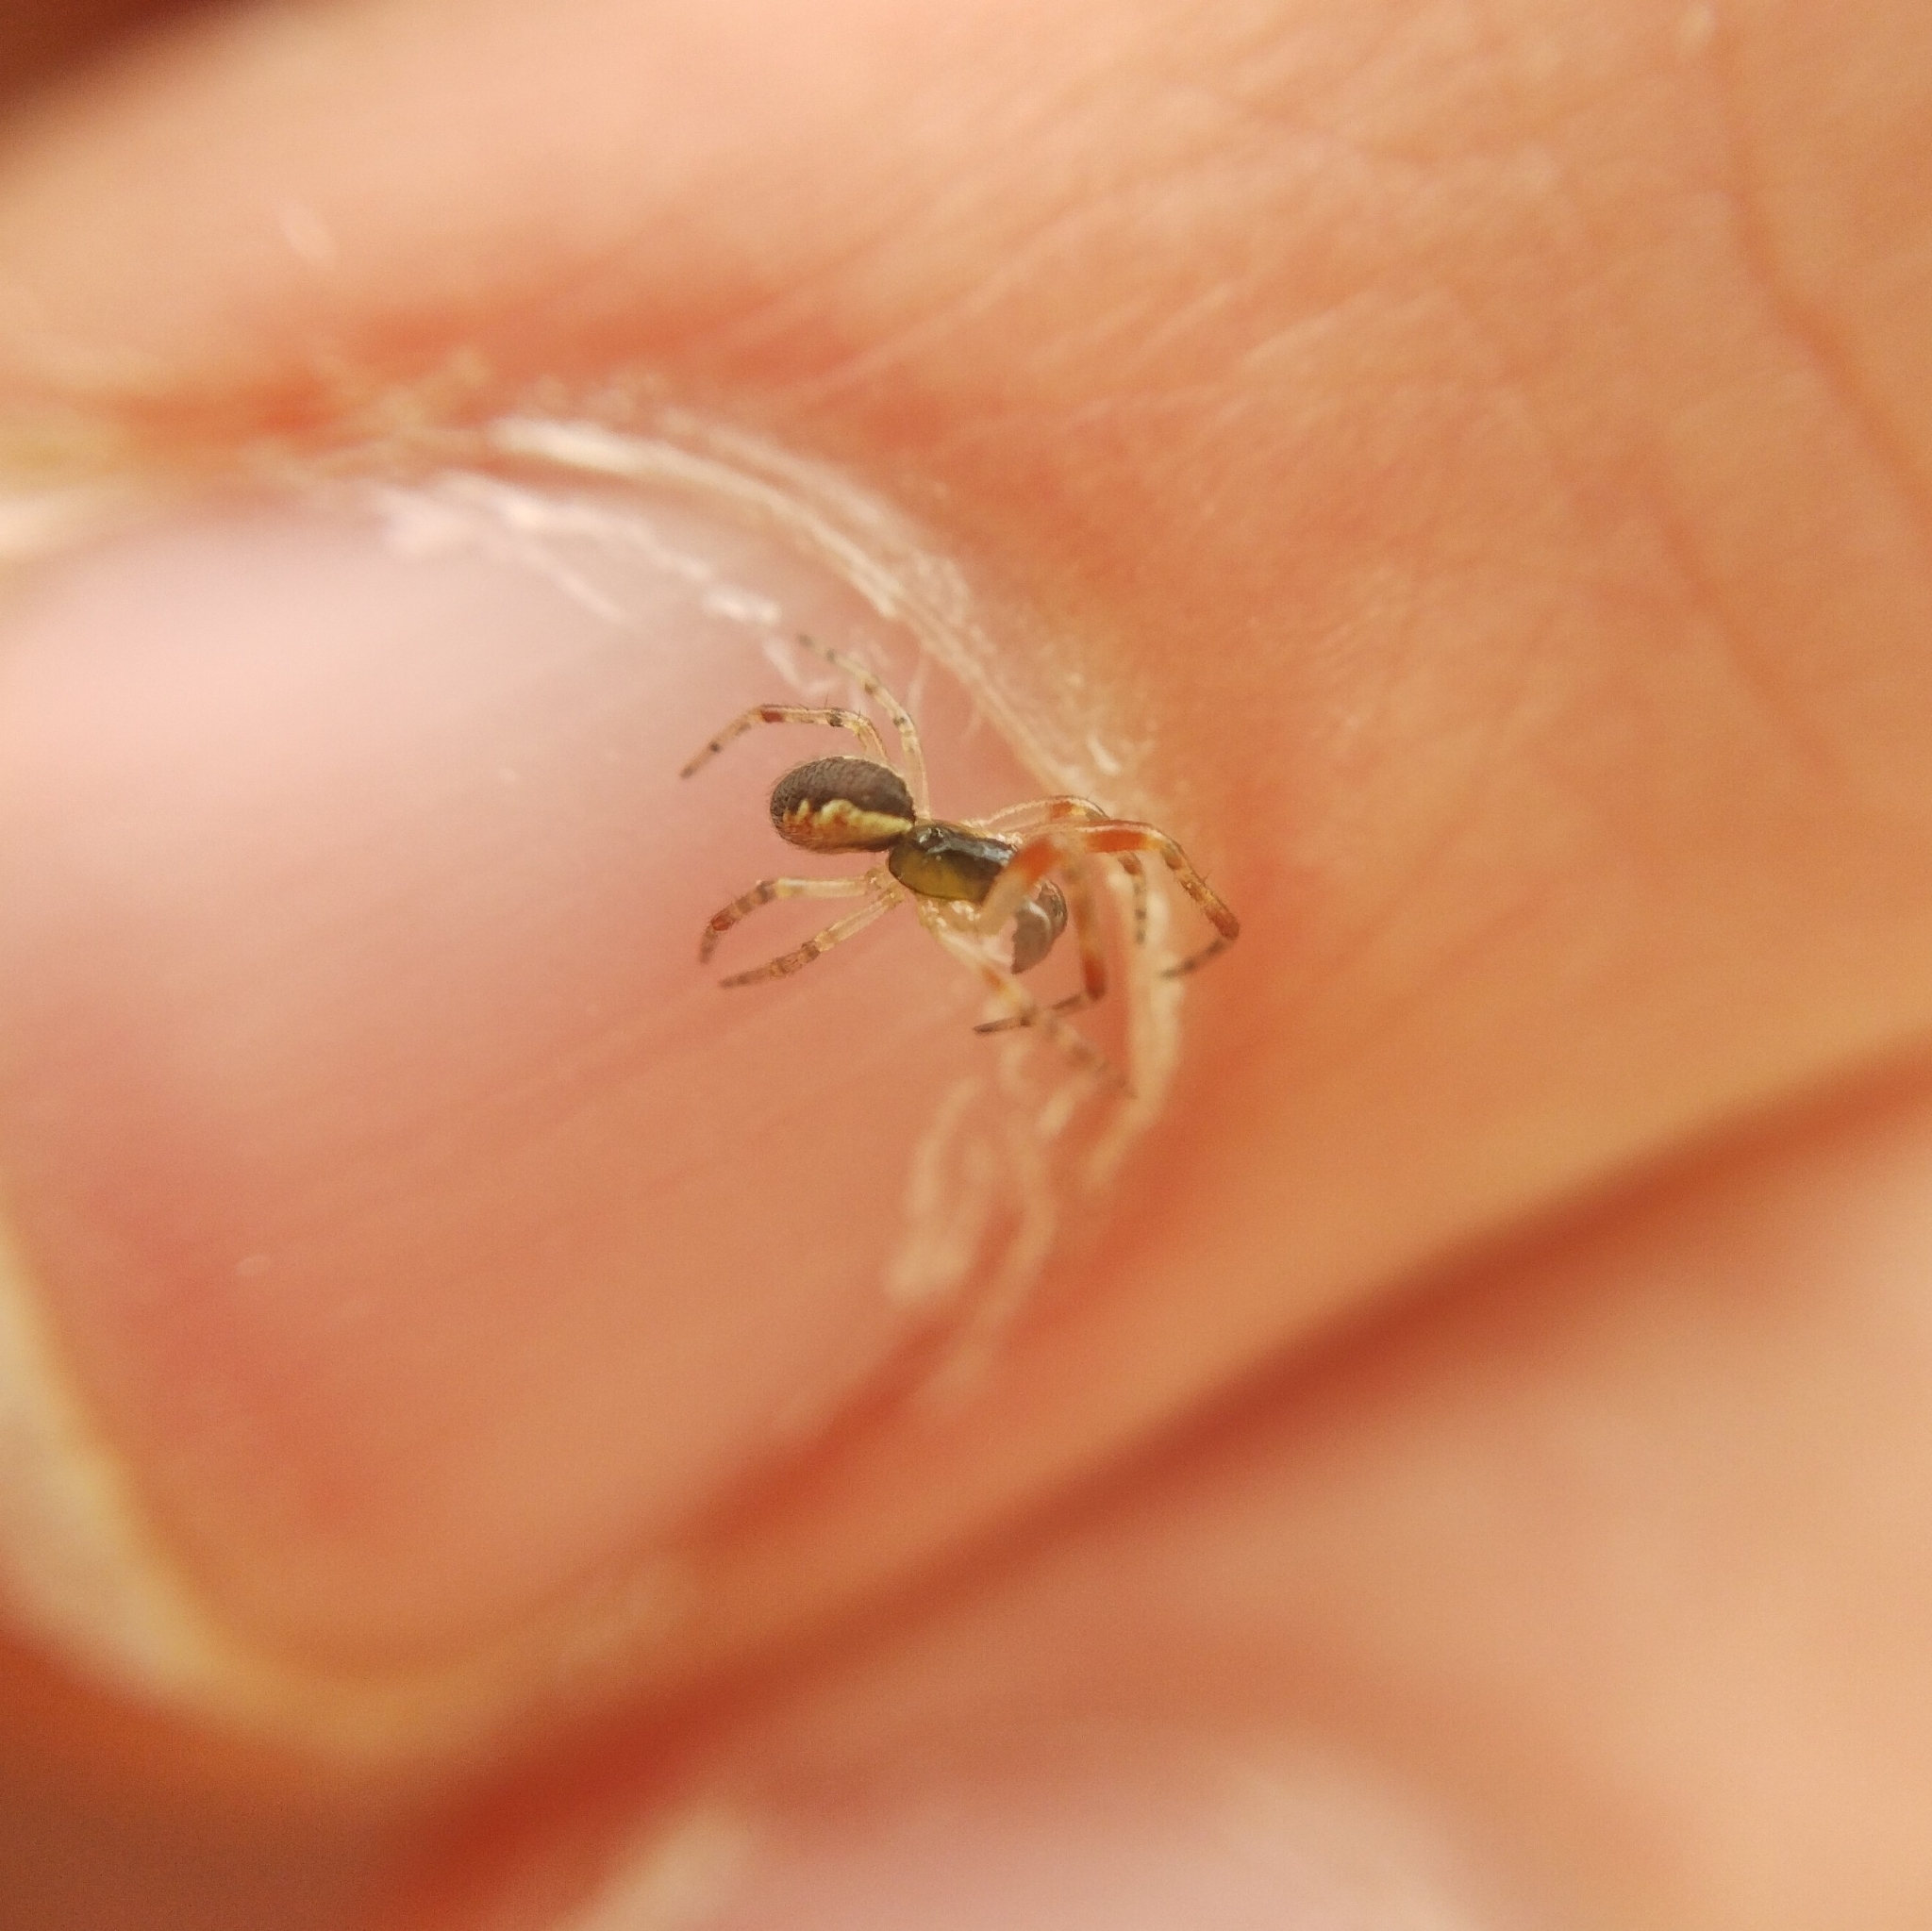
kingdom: Animalia
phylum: Arthropoda
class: Arachnida
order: Araneae
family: Theridiidae
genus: Anelosimus
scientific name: Anelosimus vittatus
